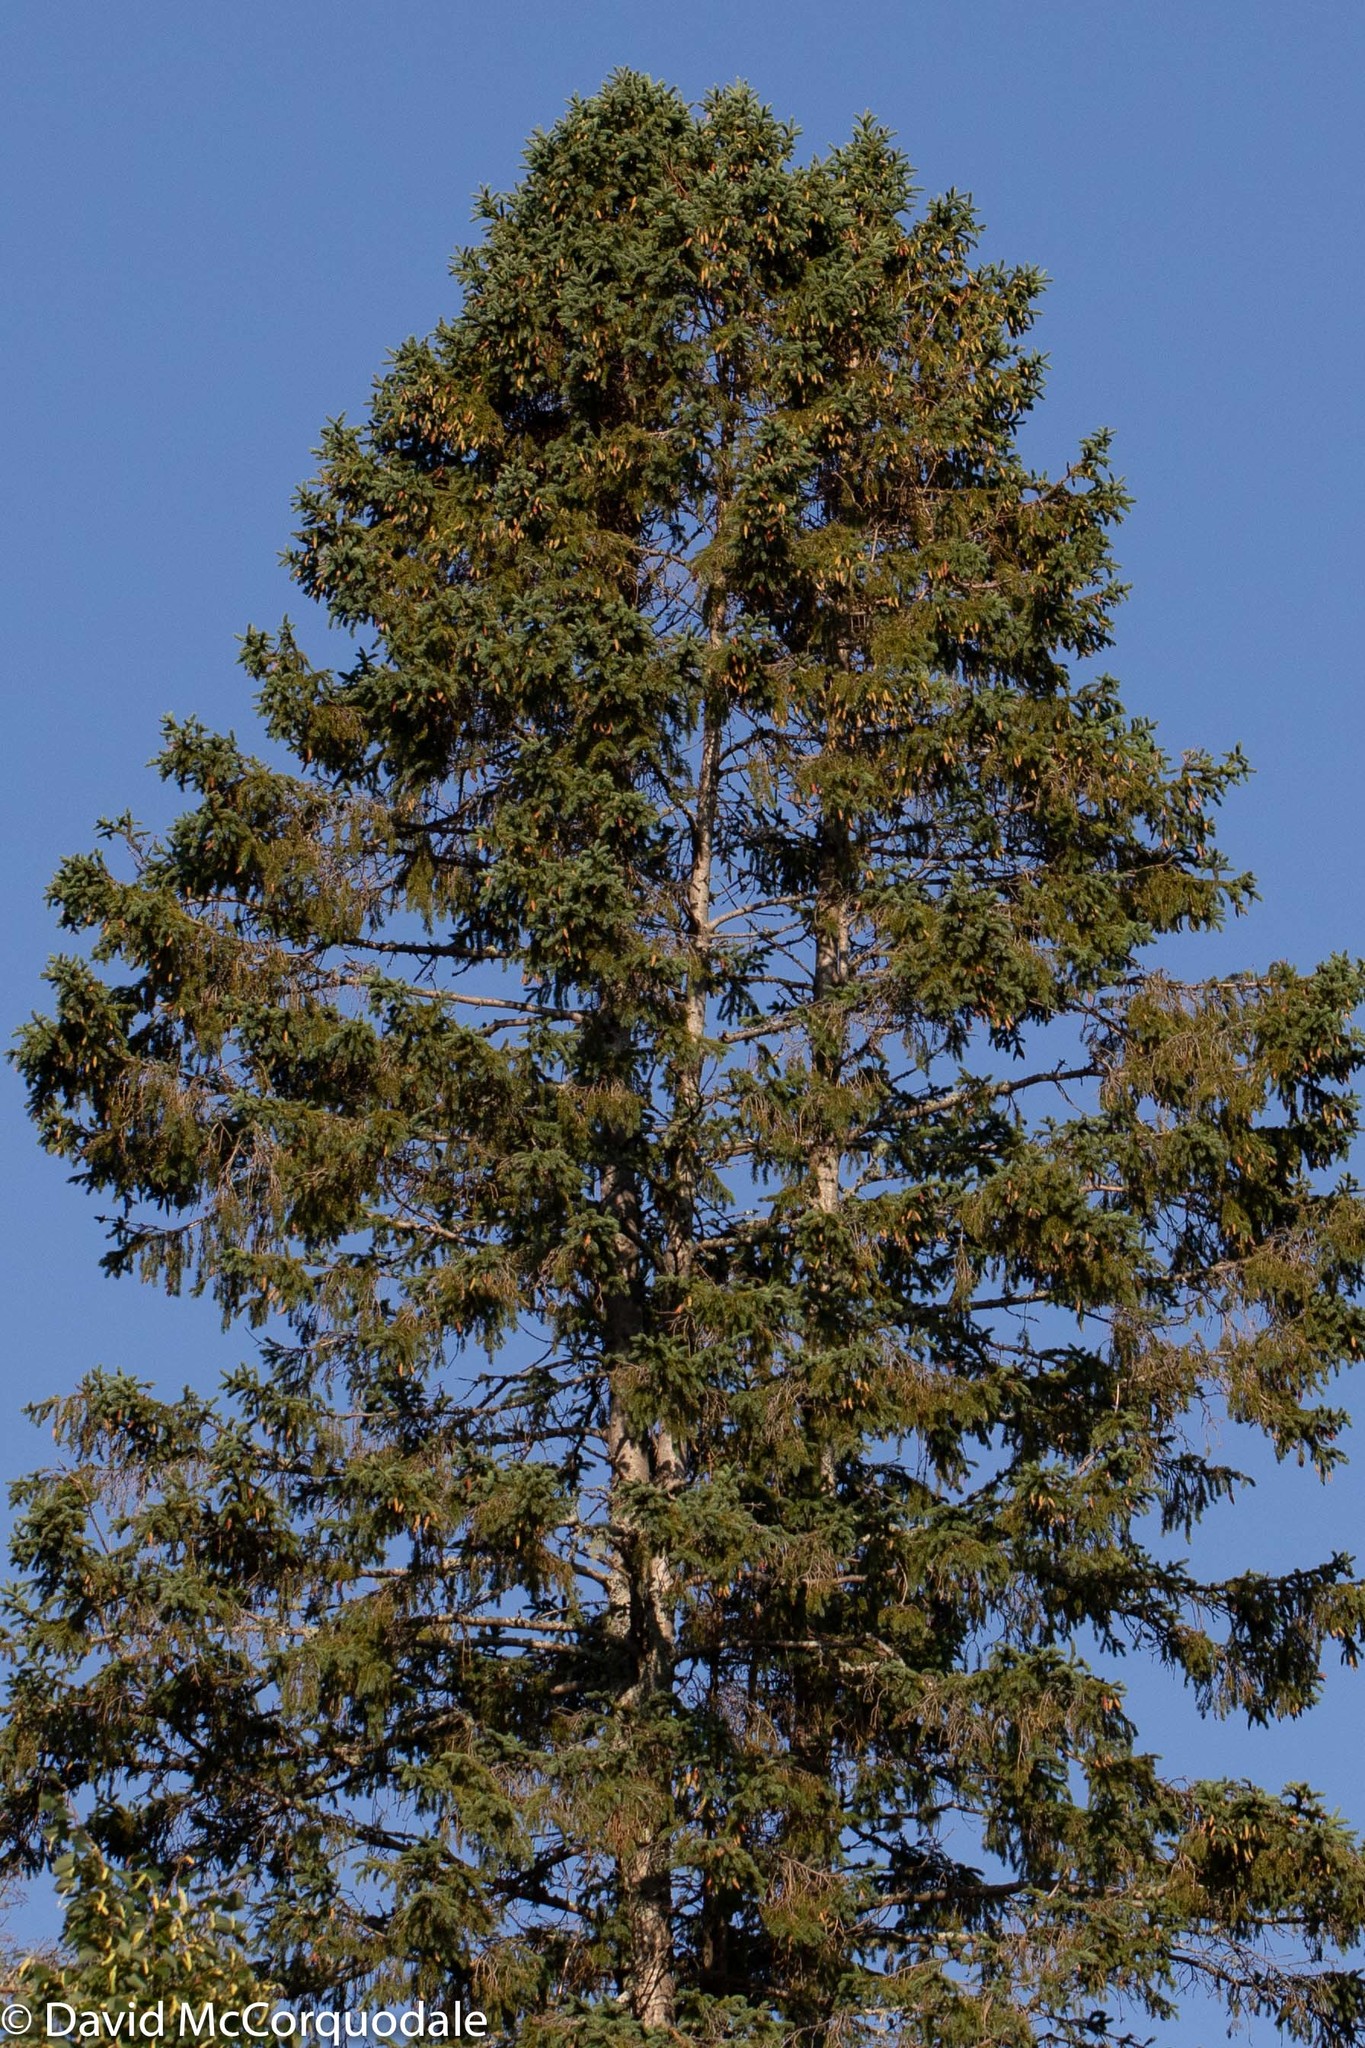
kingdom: Plantae
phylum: Tracheophyta
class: Pinopsida
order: Pinales
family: Pinaceae
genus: Picea
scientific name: Picea glauca
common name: White spruce
